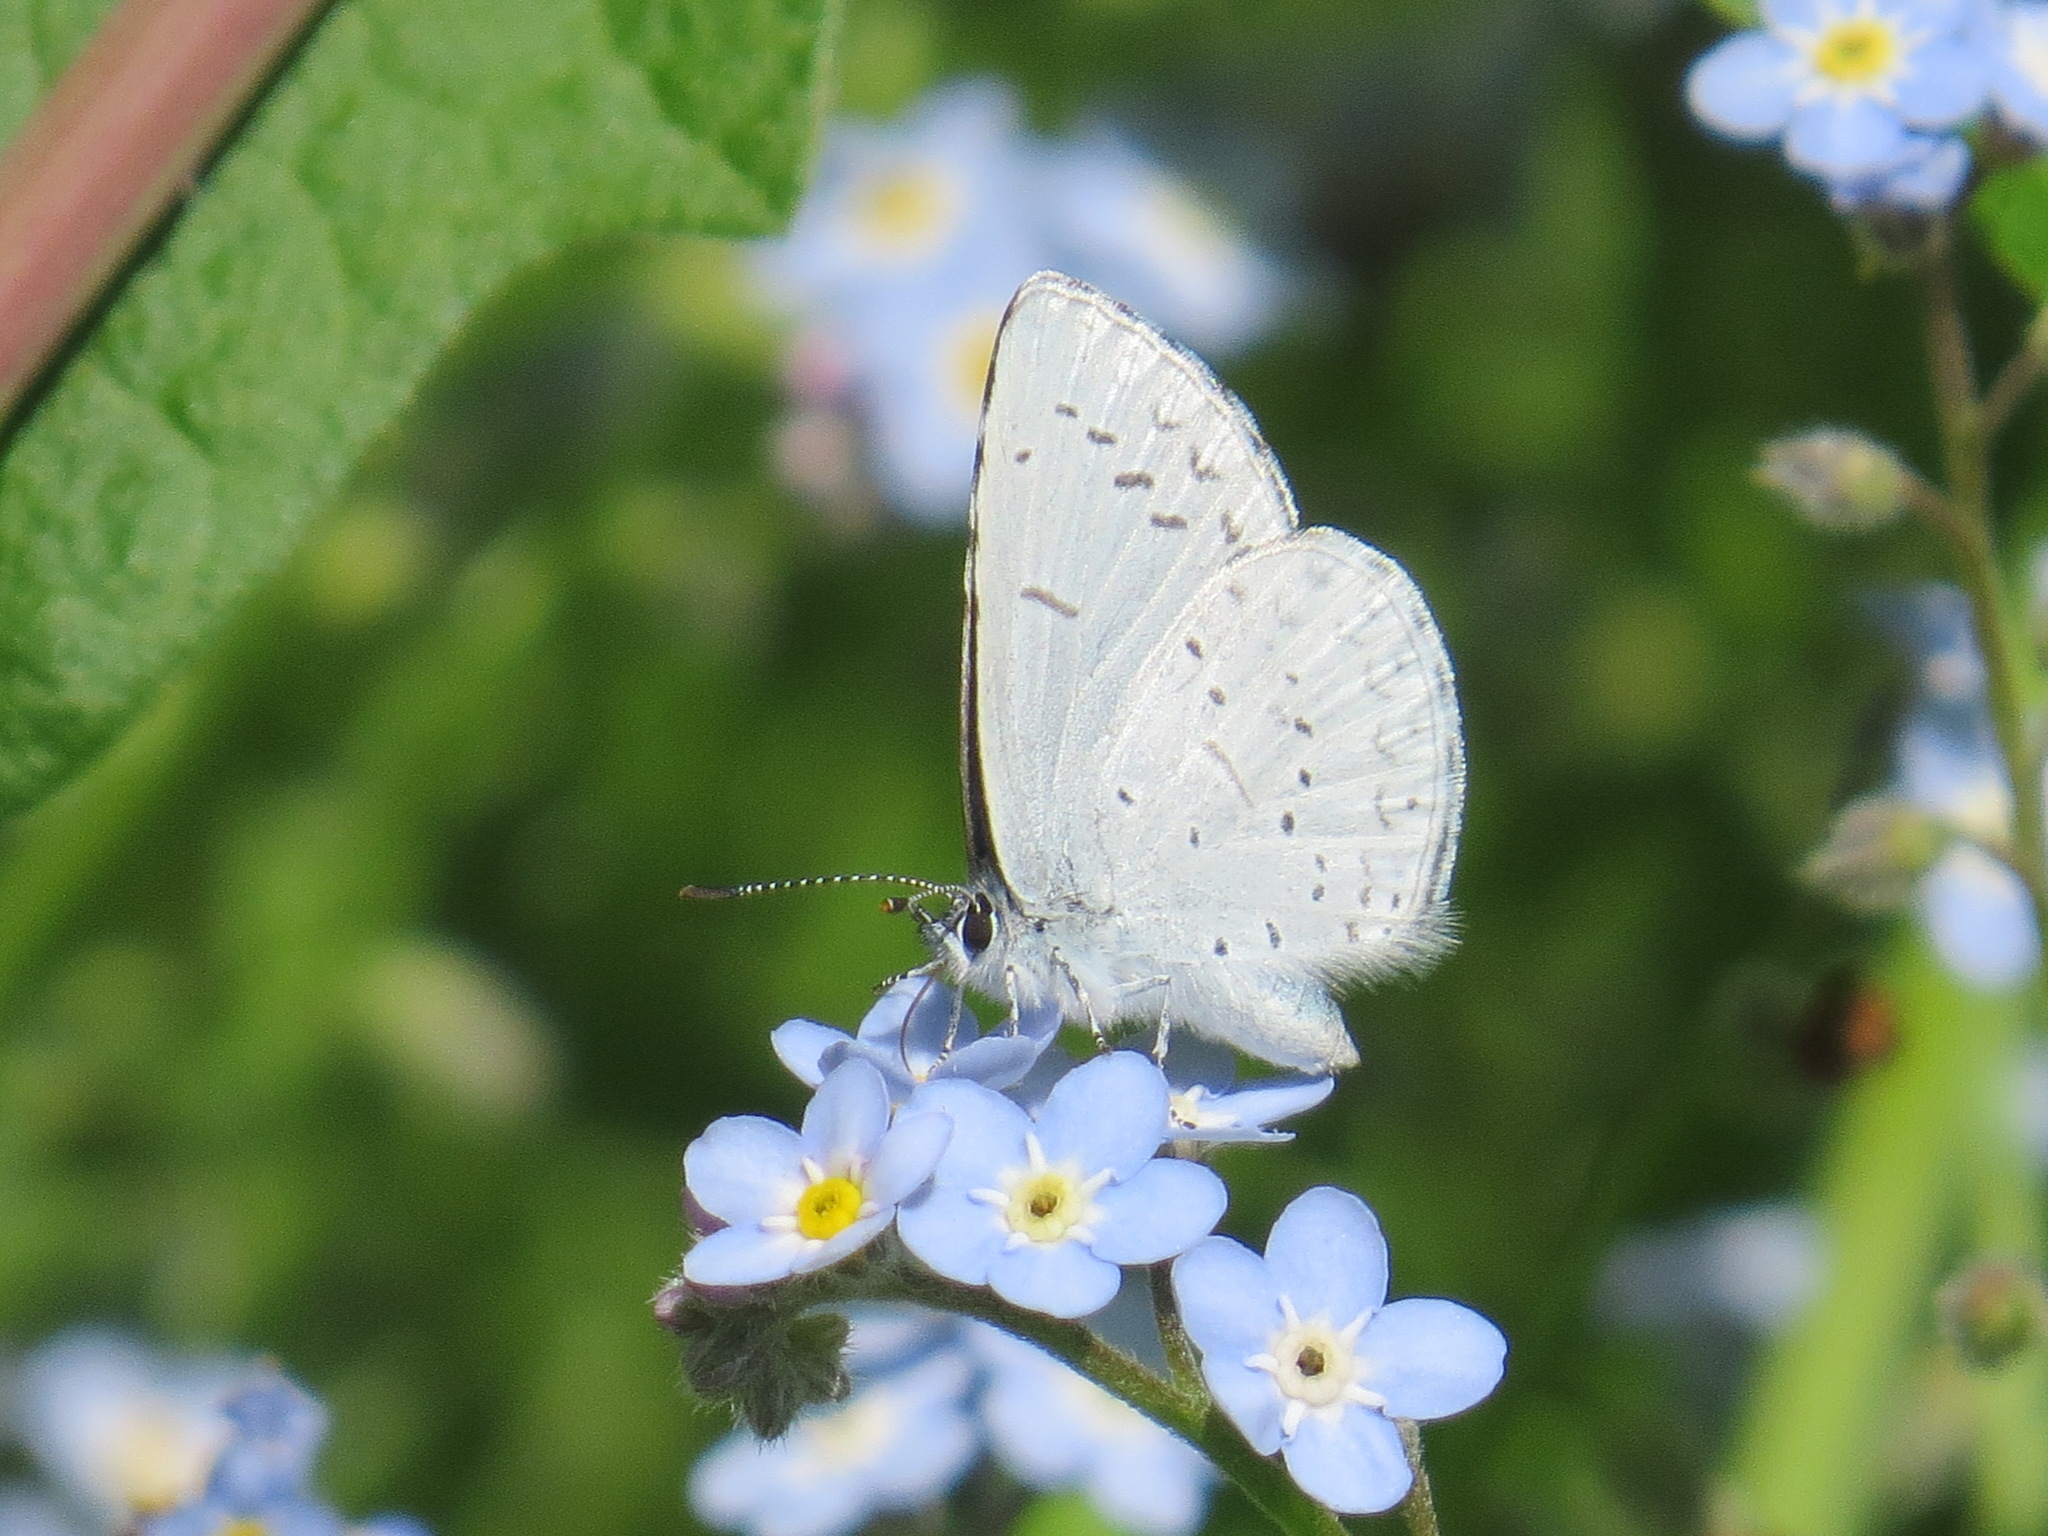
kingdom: Animalia
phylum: Arthropoda
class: Insecta
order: Lepidoptera
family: Lycaenidae
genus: Celastrina
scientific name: Celastrina ladon
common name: Spring azure
